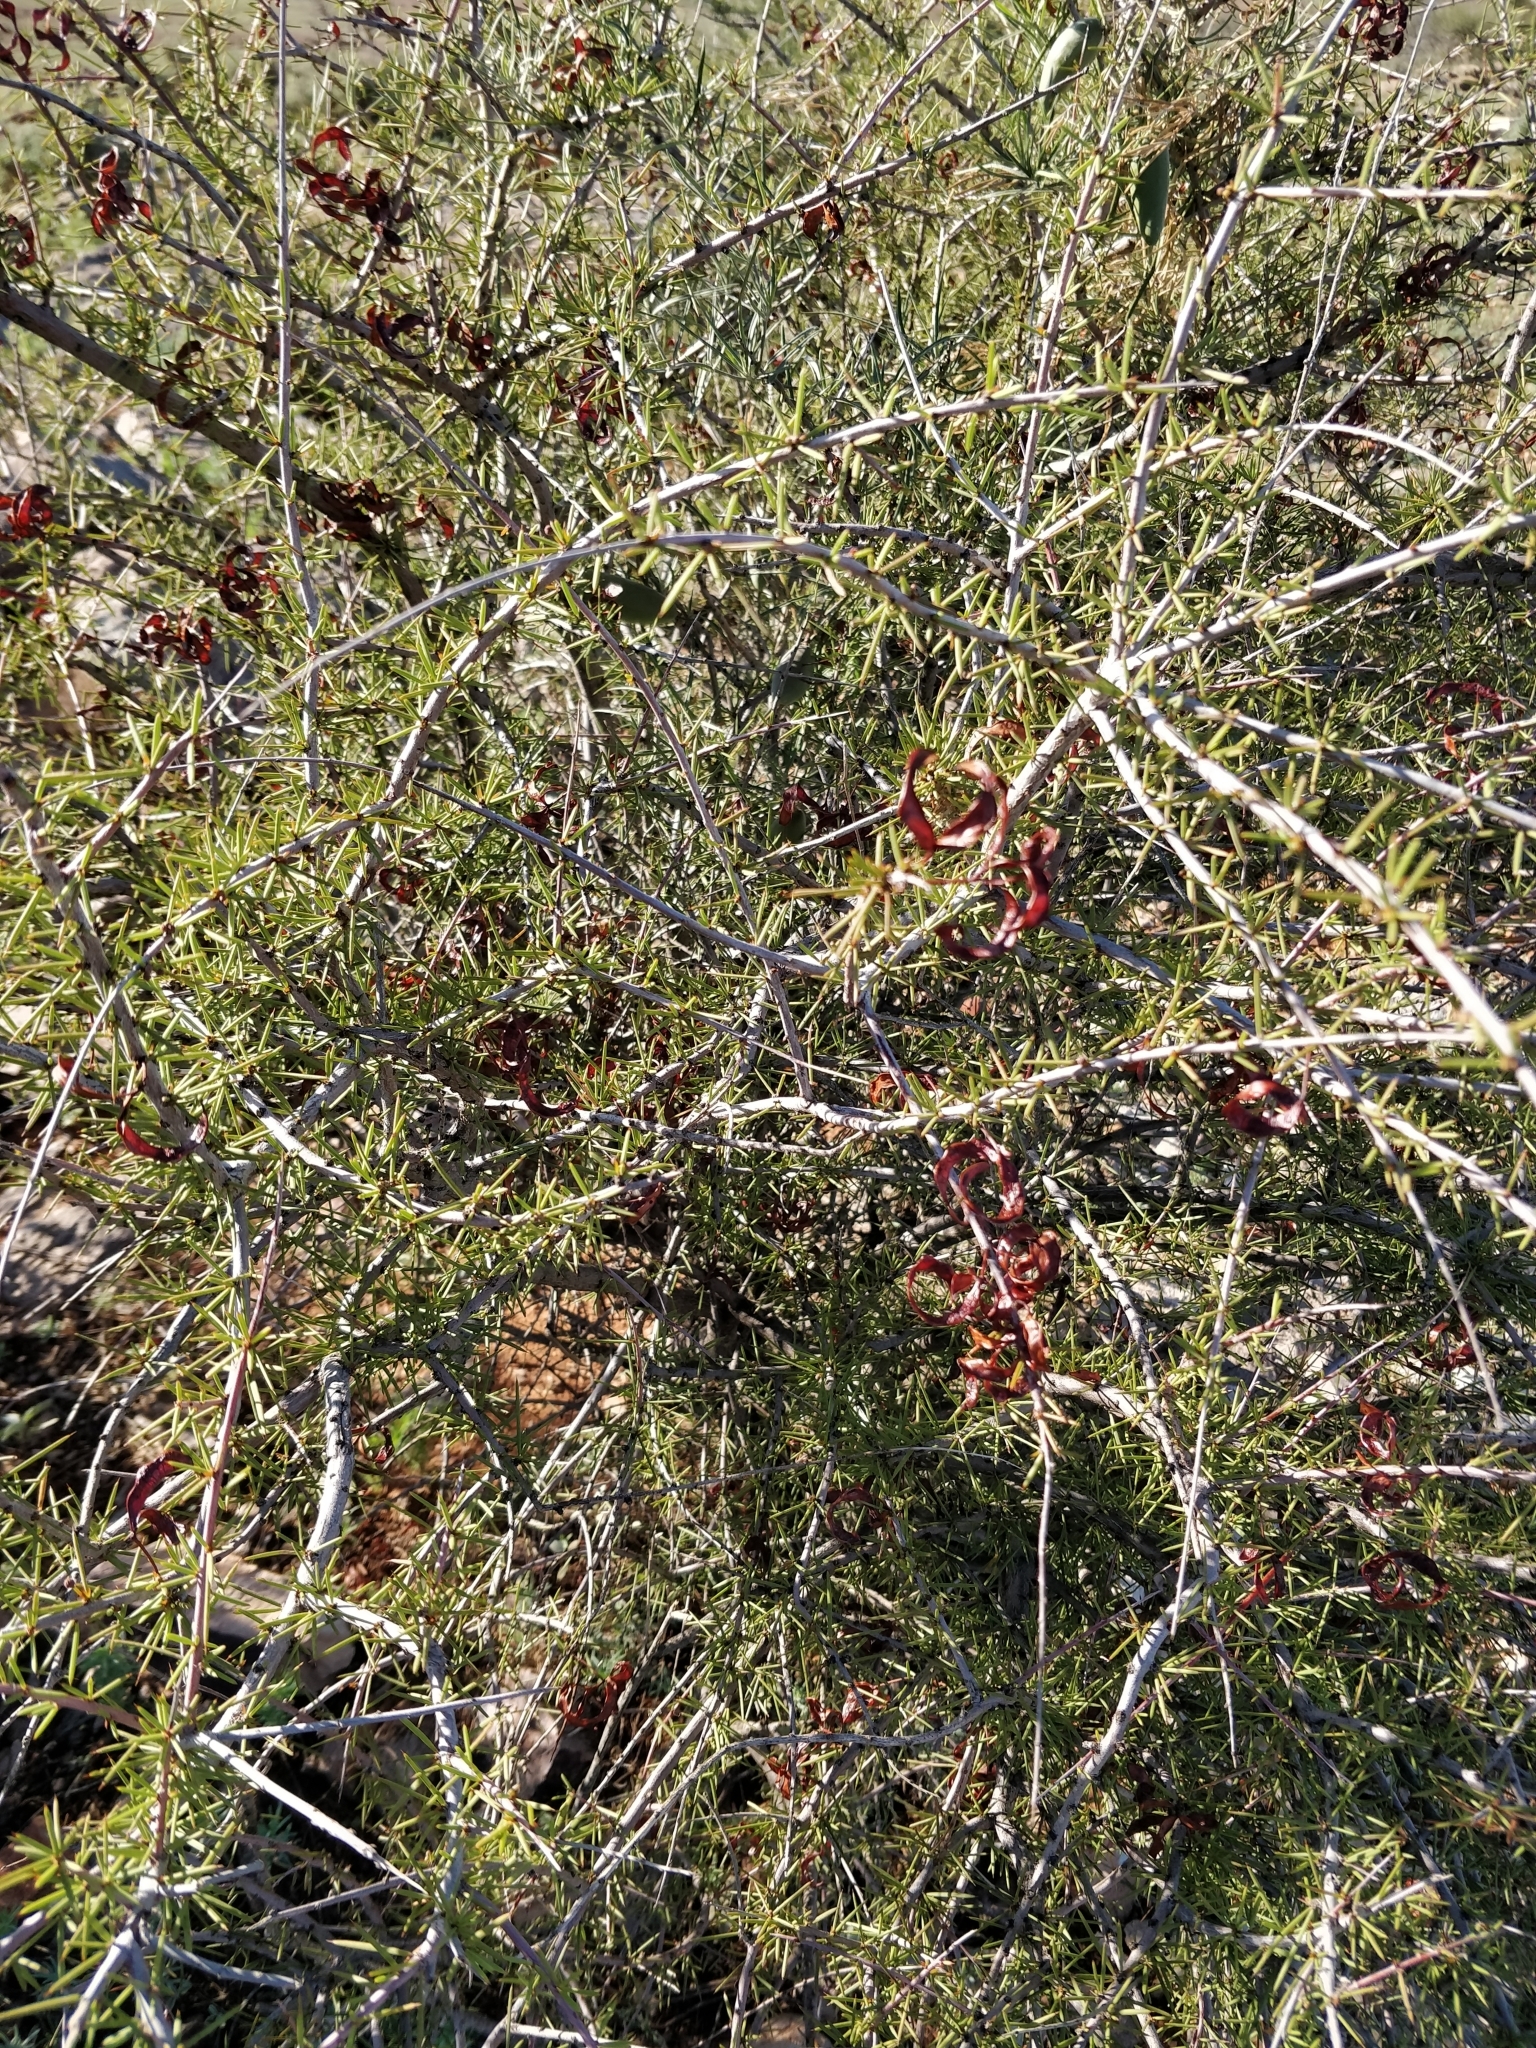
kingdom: Plantae
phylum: Tracheophyta
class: Magnoliopsida
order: Fabales
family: Fabaceae
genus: Acacia
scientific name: Acacia tetragonophylla
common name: Dead finish
